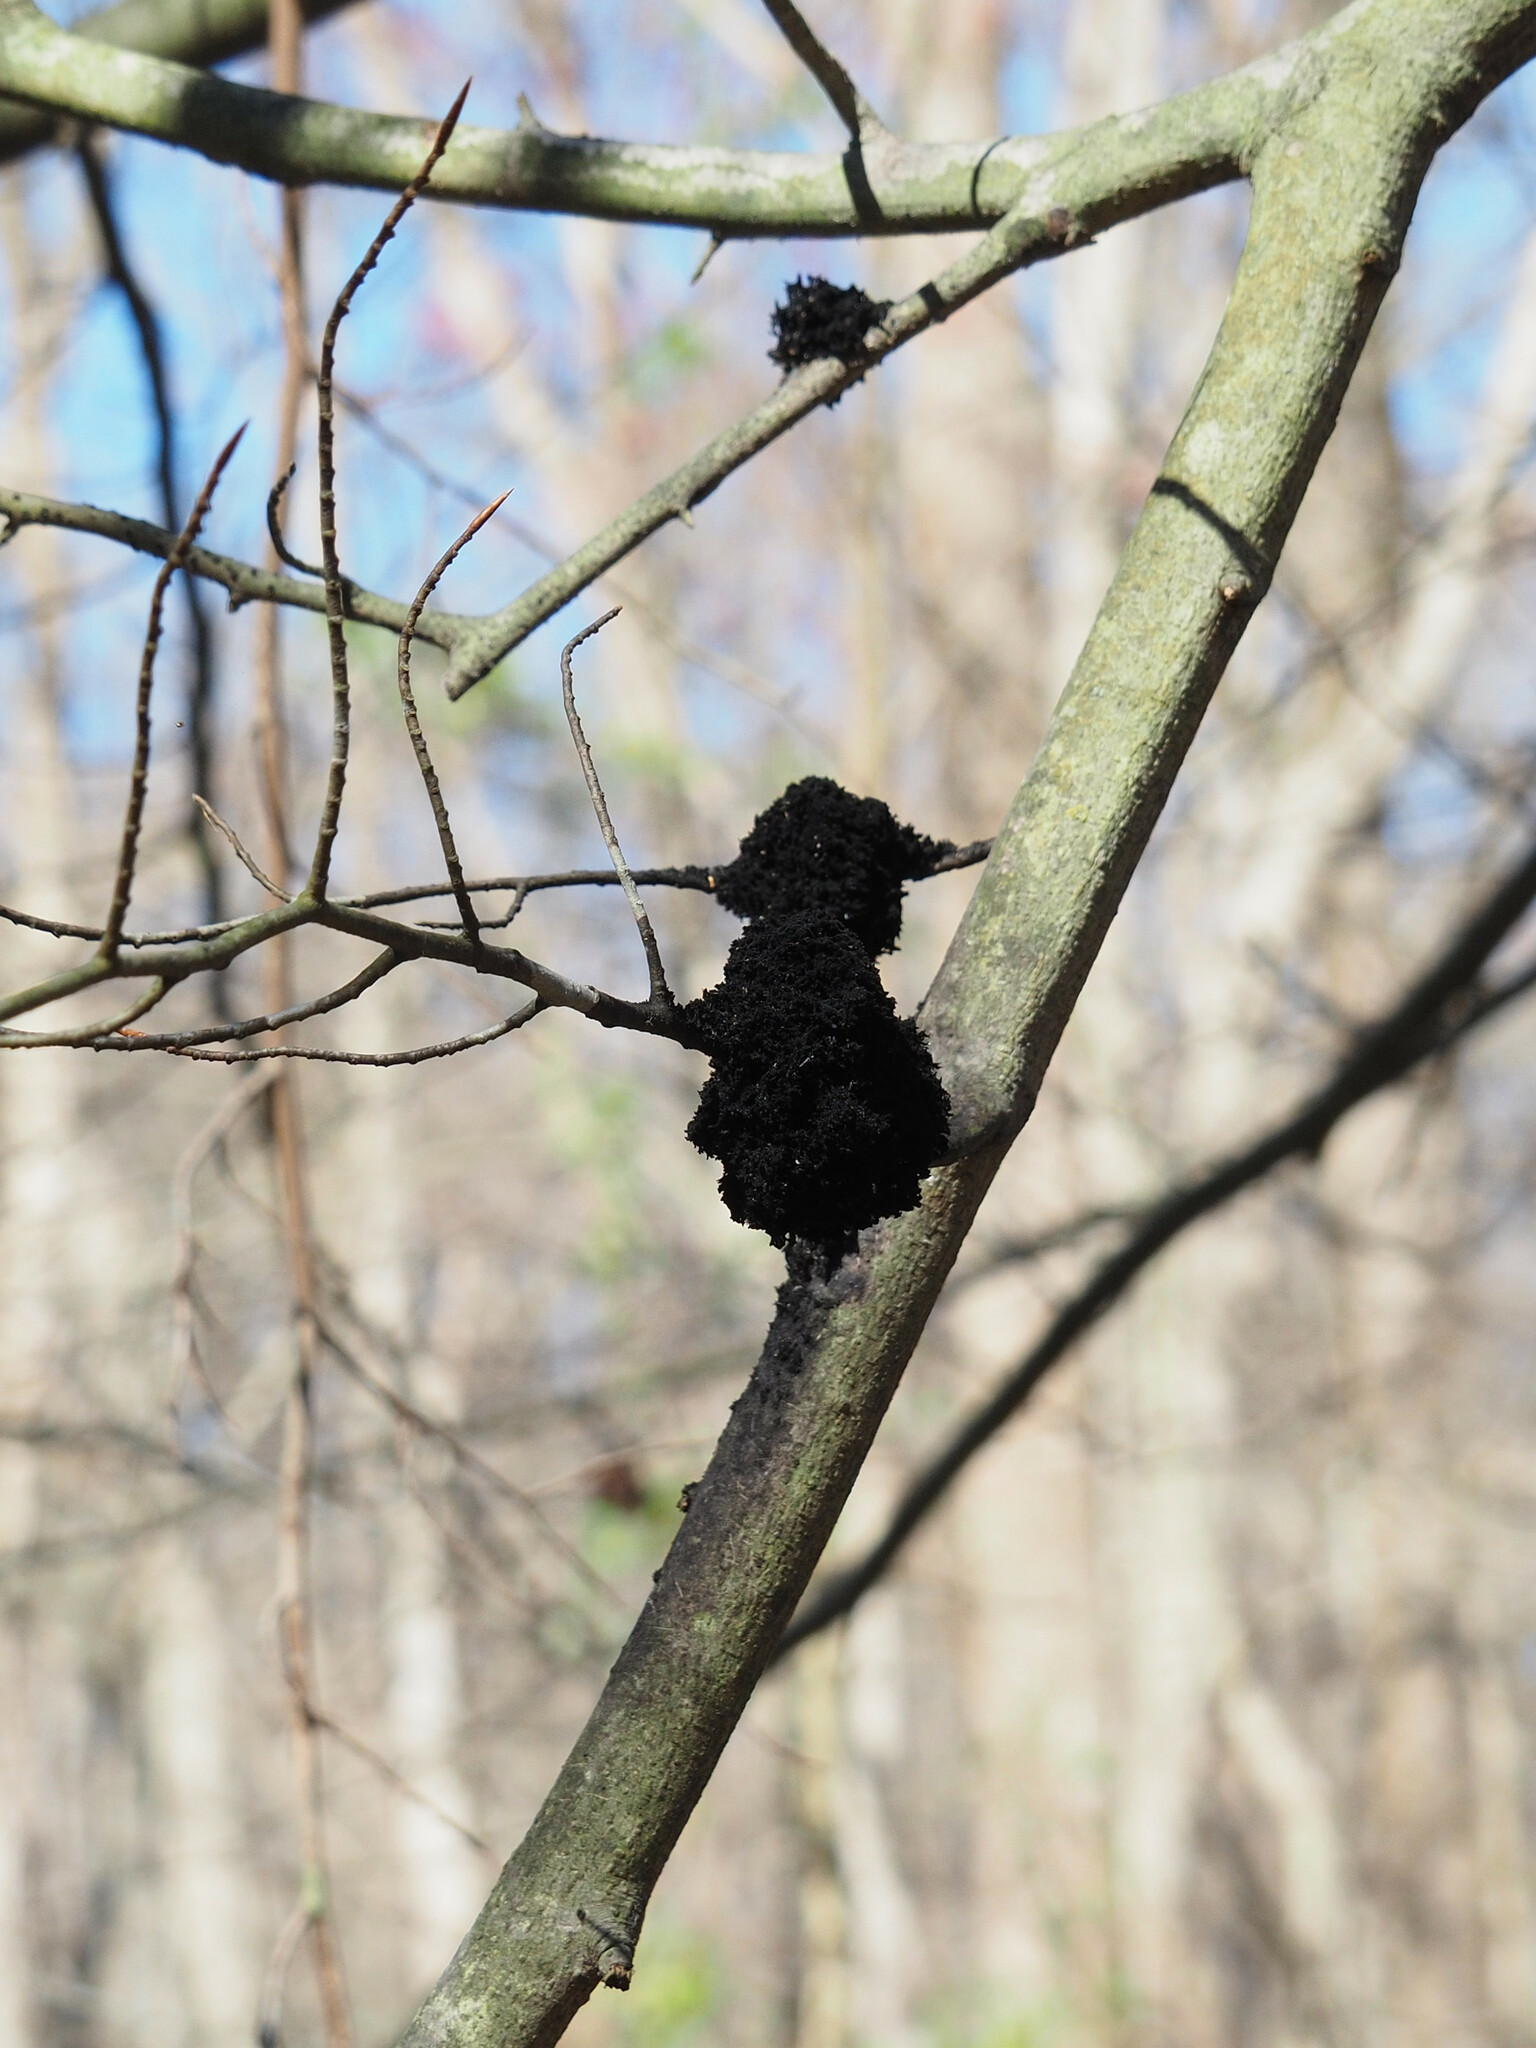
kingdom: Fungi
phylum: Ascomycota
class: Dothideomycetes
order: Capnodiales
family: Capnodiaceae
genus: Scorias
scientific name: Scorias spongiosa
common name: Black sooty mold
